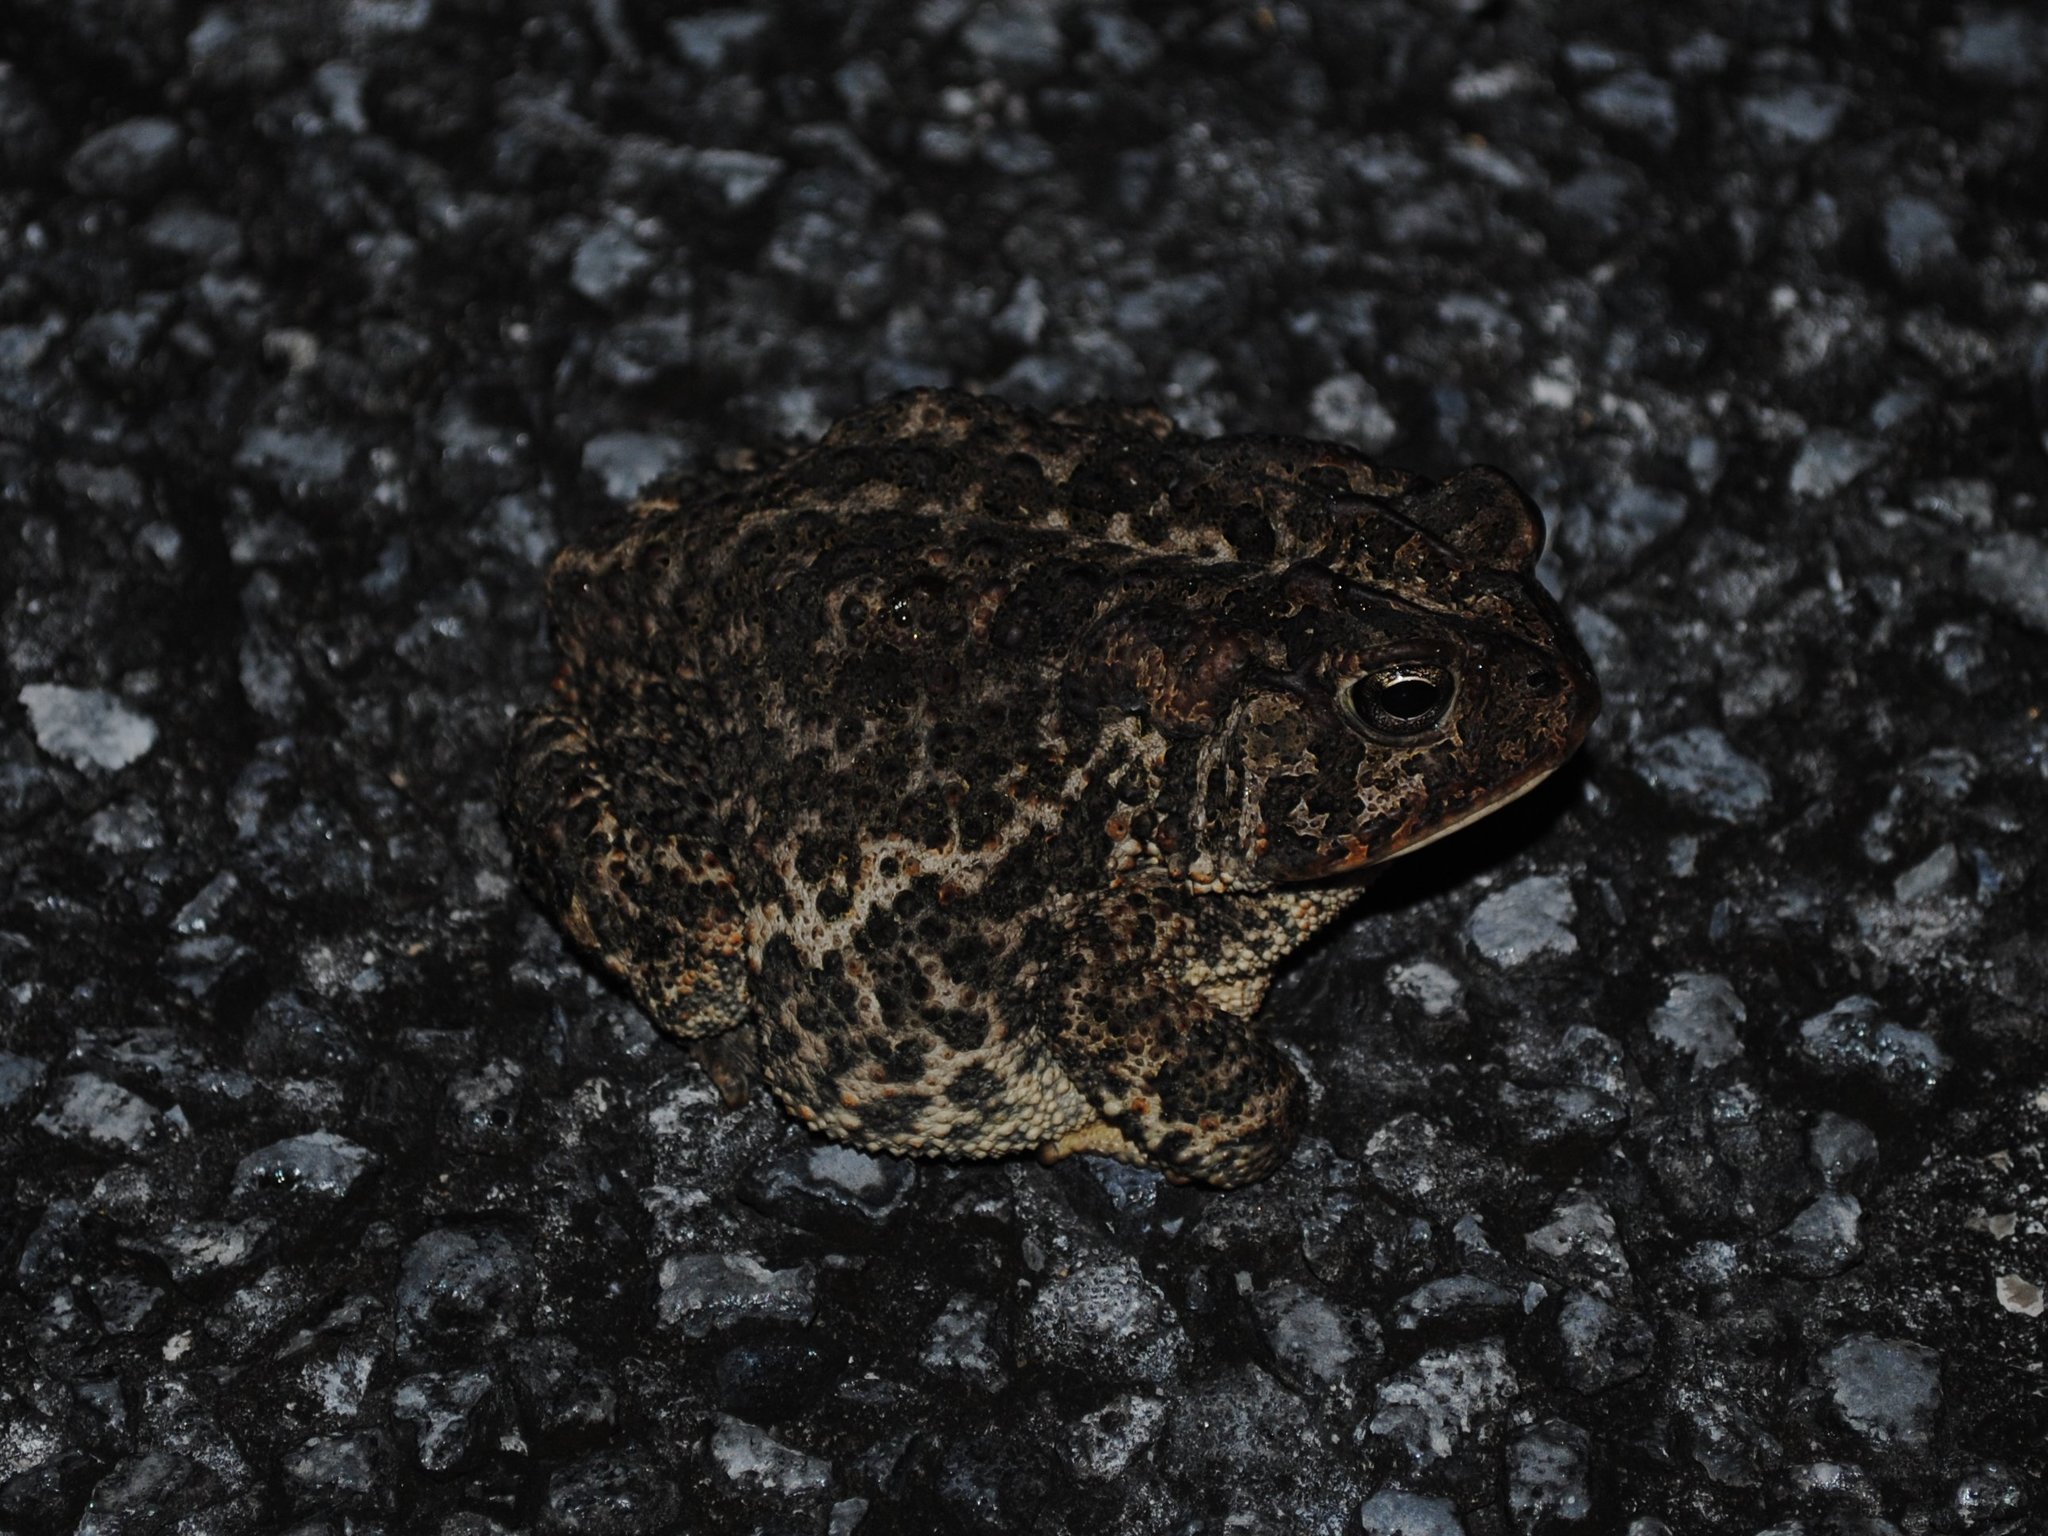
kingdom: Animalia
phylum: Chordata
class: Amphibia
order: Anura
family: Bufonidae
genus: Anaxyrus
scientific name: Anaxyrus terrestris
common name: Southern toad
